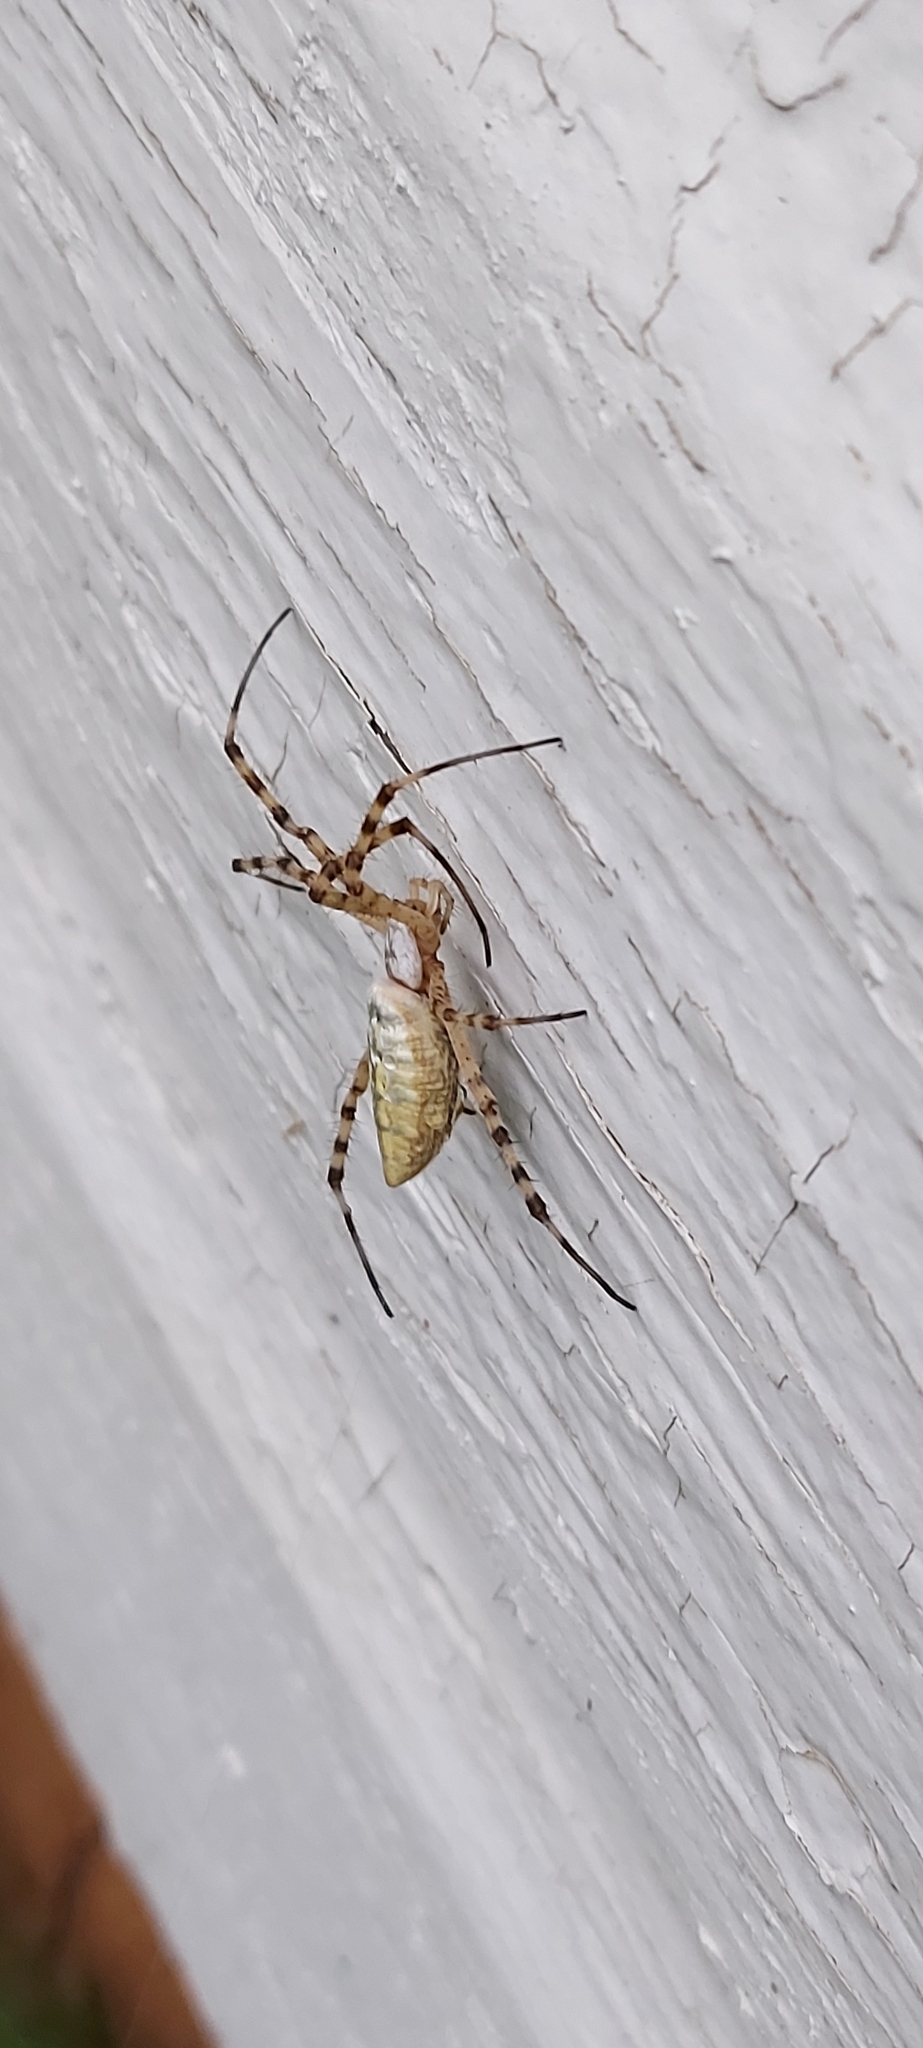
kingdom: Animalia
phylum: Arthropoda
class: Arachnida
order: Araneae
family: Araneidae
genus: Argiope
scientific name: Argiope trifasciata
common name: Banded garden spider
